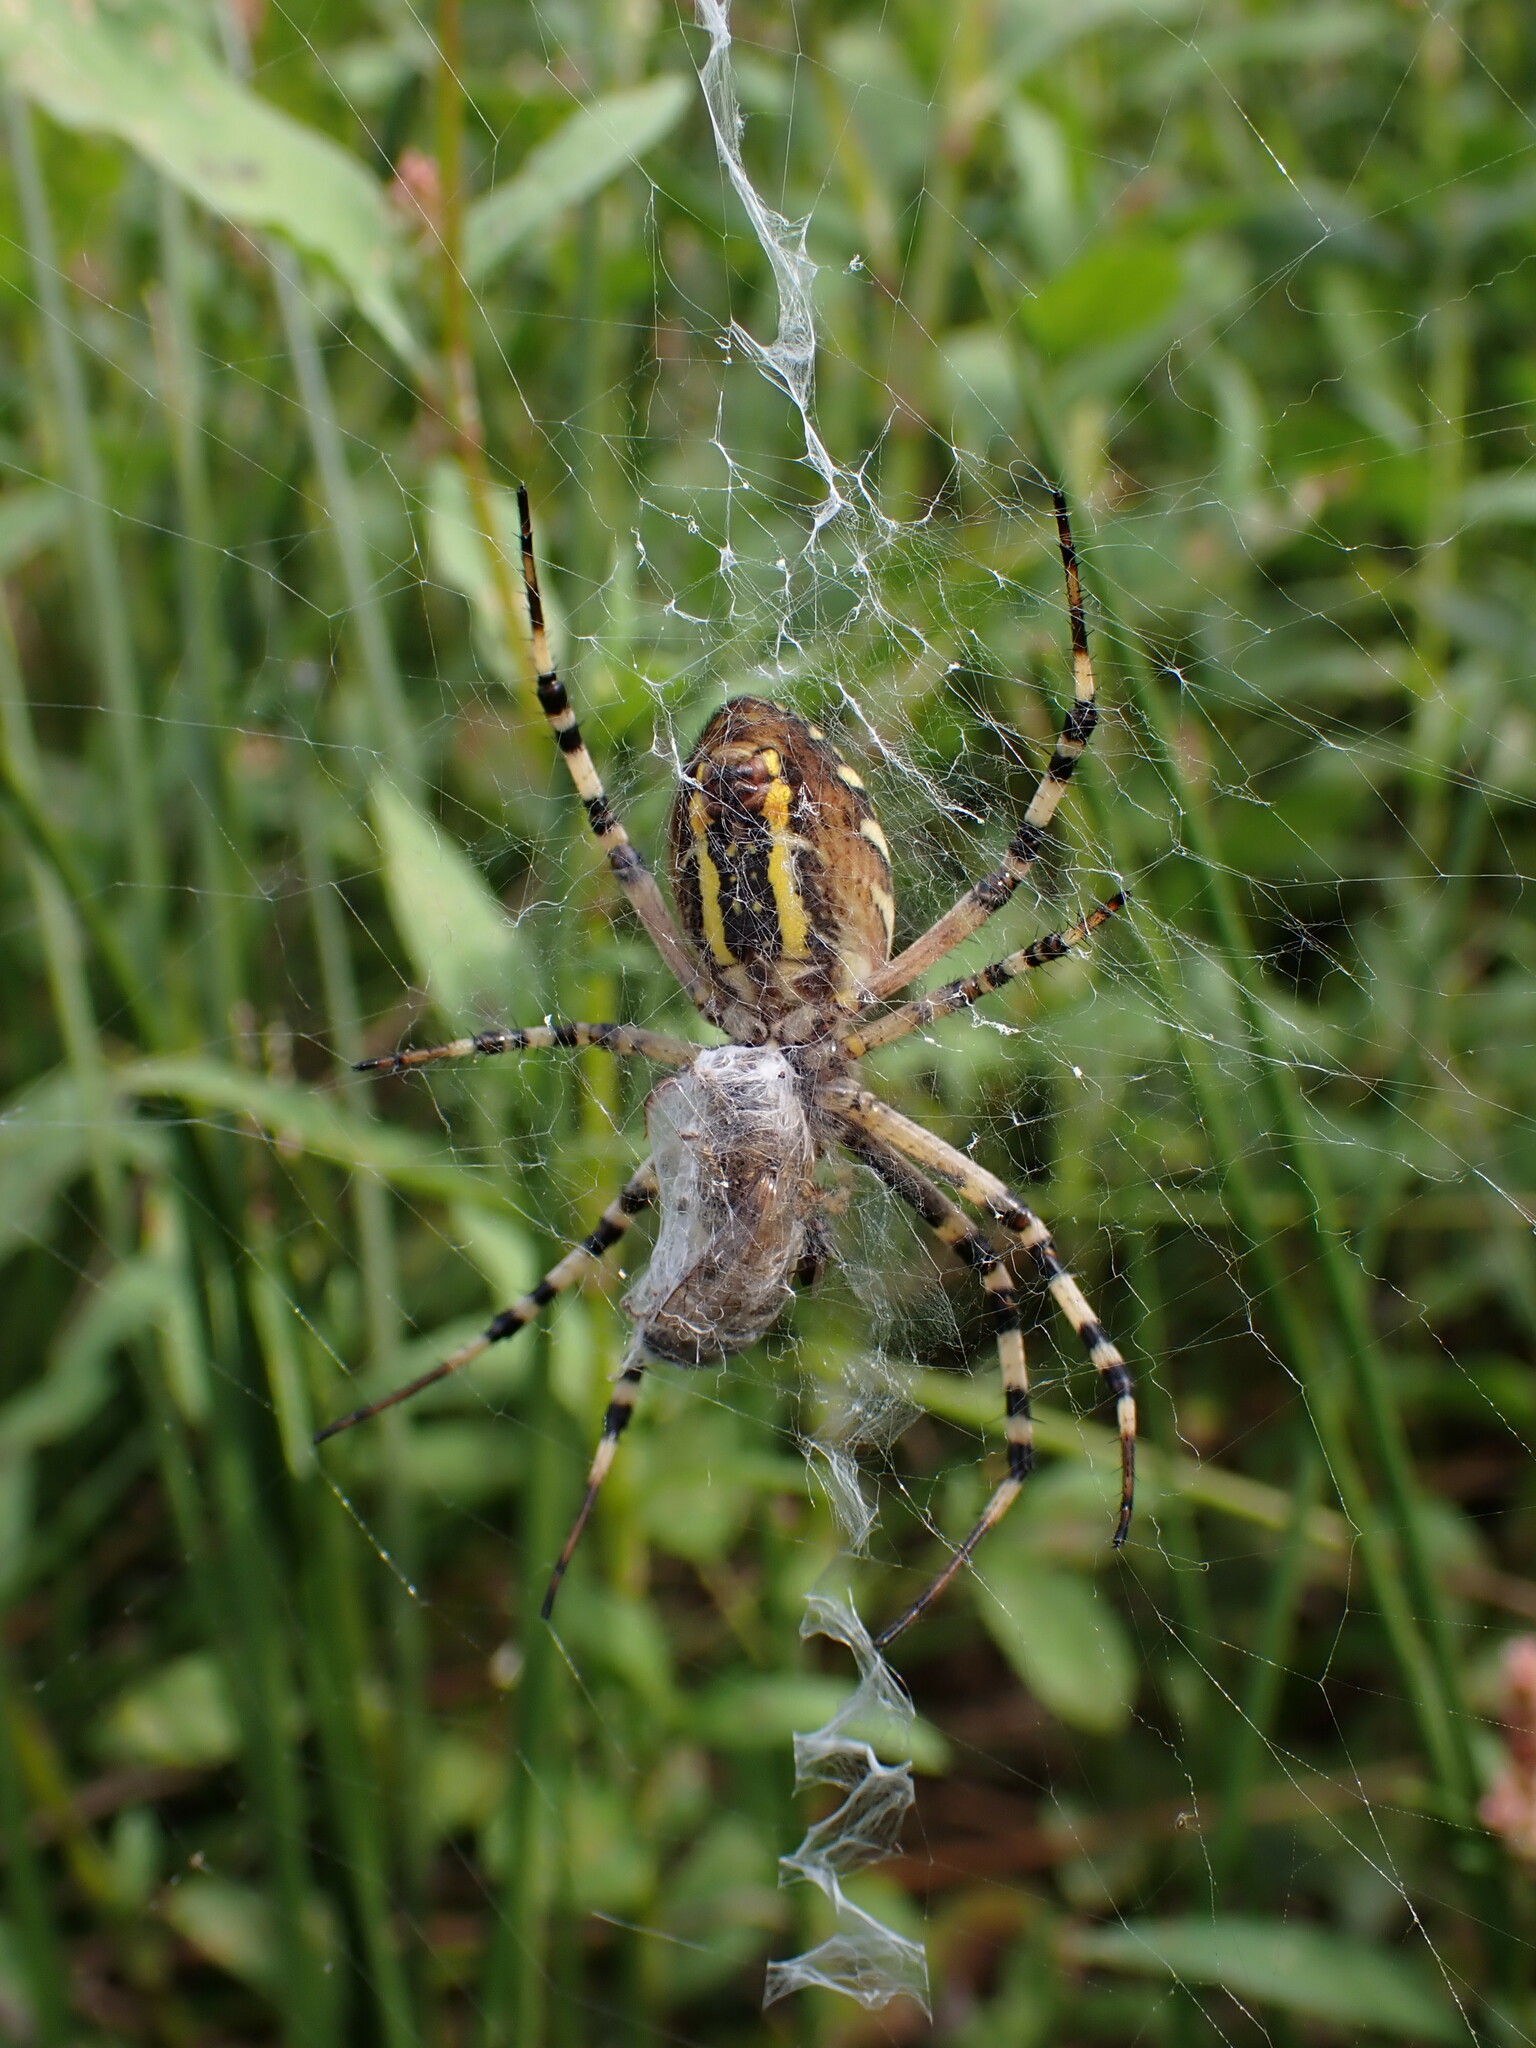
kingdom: Animalia
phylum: Arthropoda
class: Arachnida
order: Araneae
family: Araneidae
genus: Argiope
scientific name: Argiope bruennichi
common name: Wasp spider
